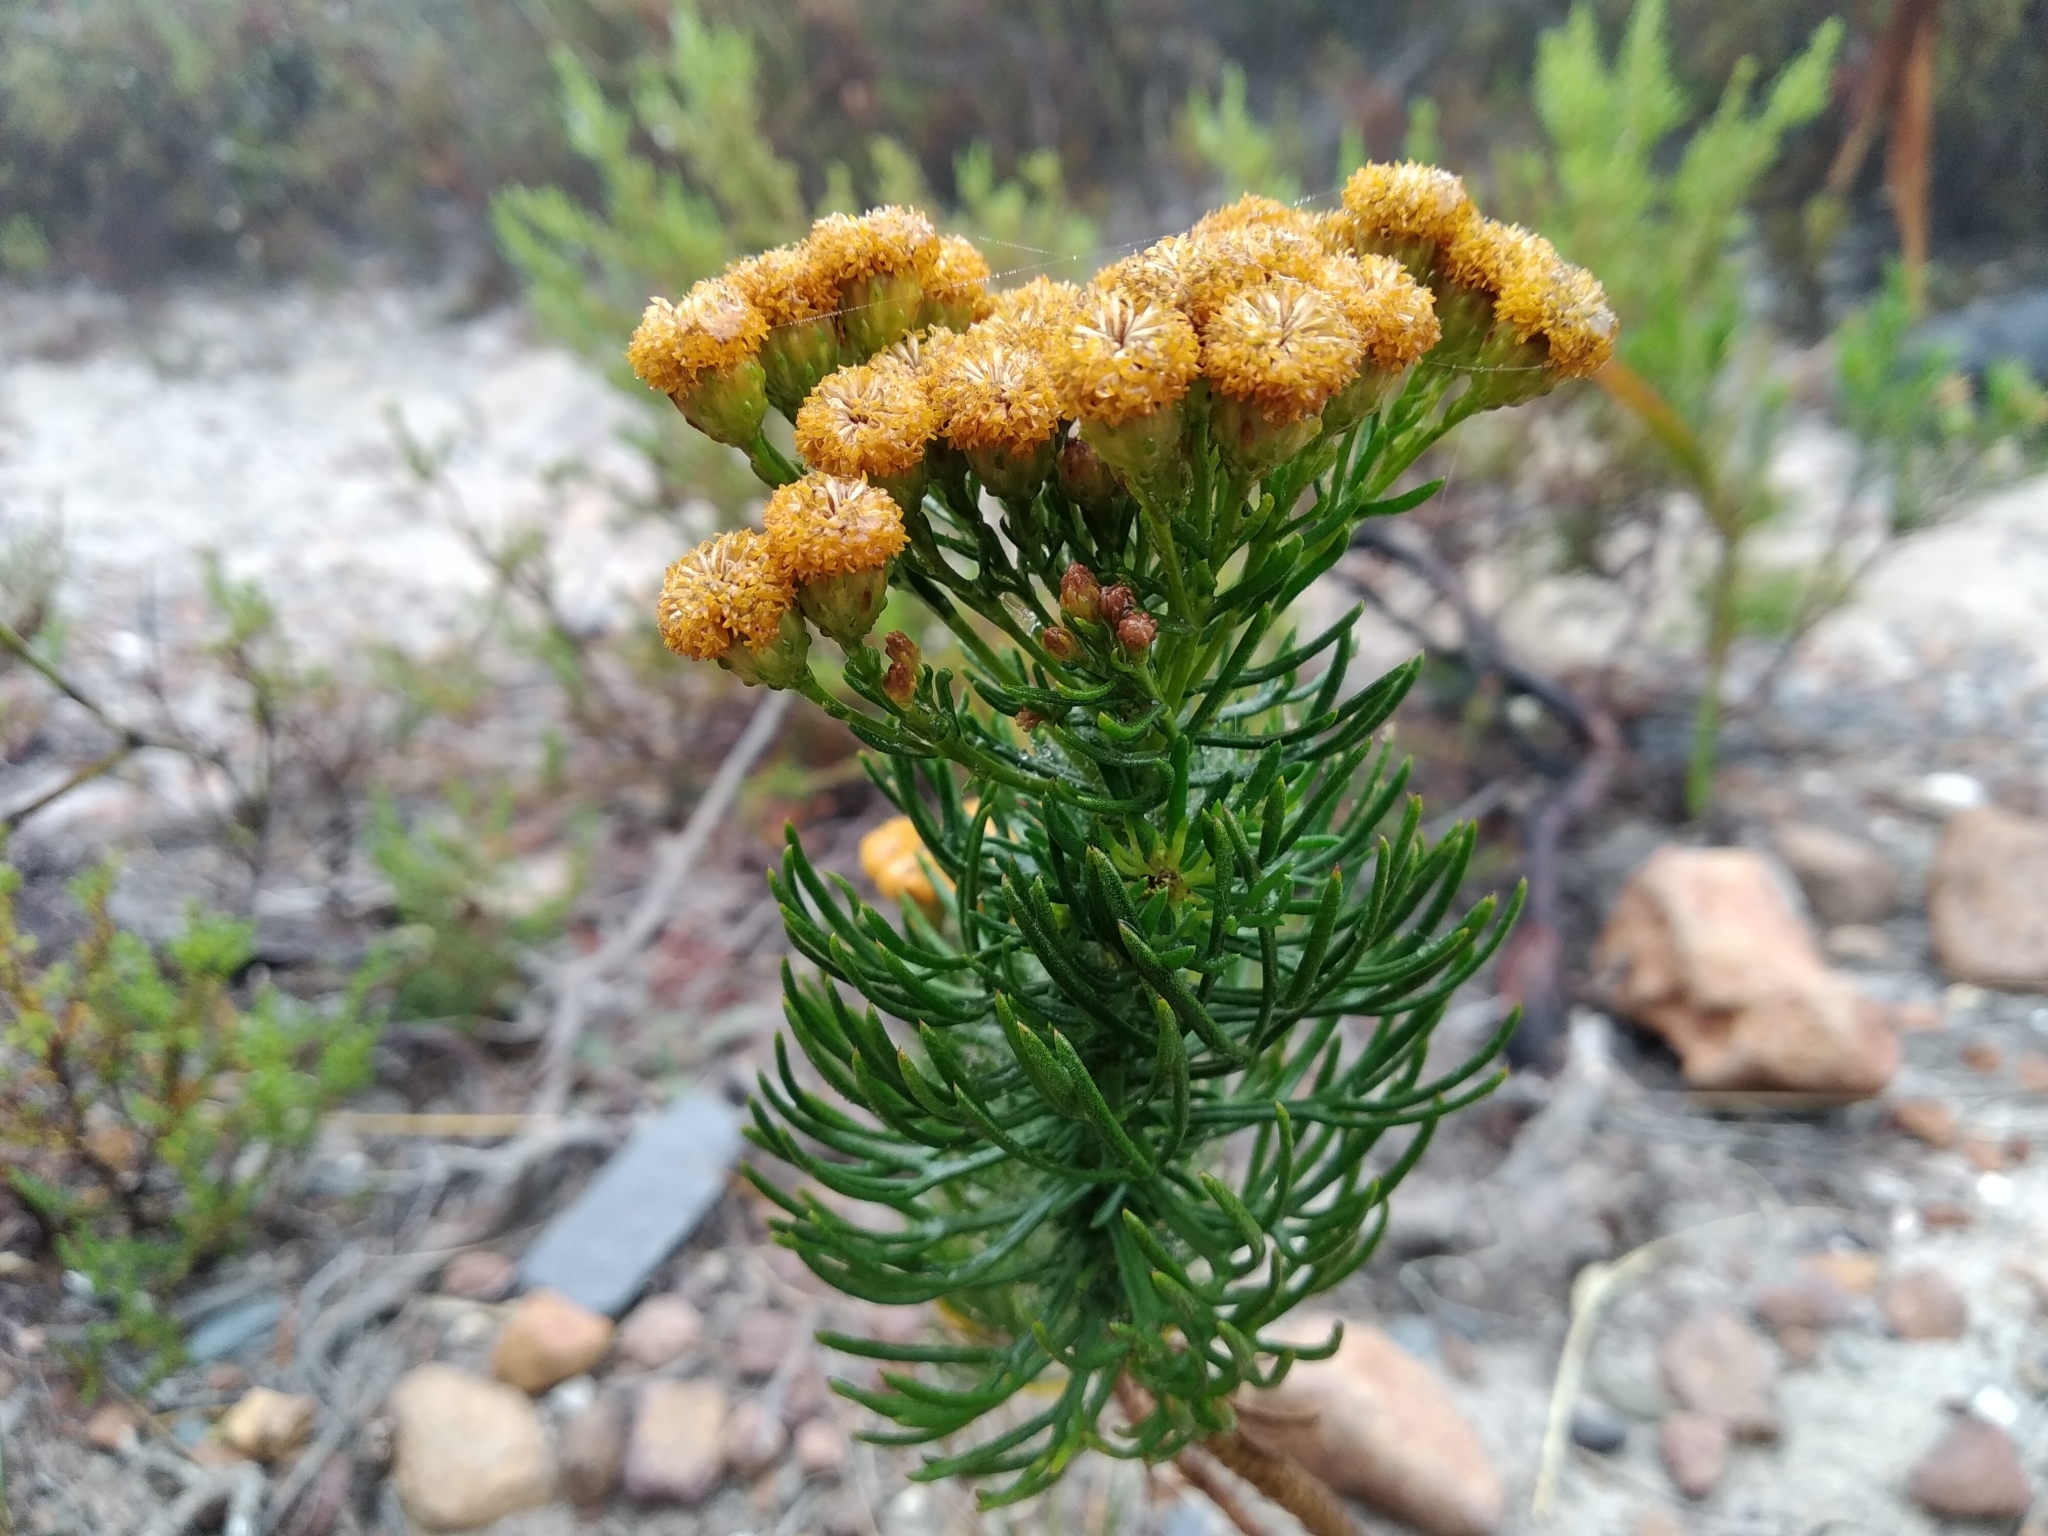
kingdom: Plantae
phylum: Tracheophyta
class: Magnoliopsida
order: Asterales
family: Asteraceae
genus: Athanasia
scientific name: Athanasia crithmifolia
